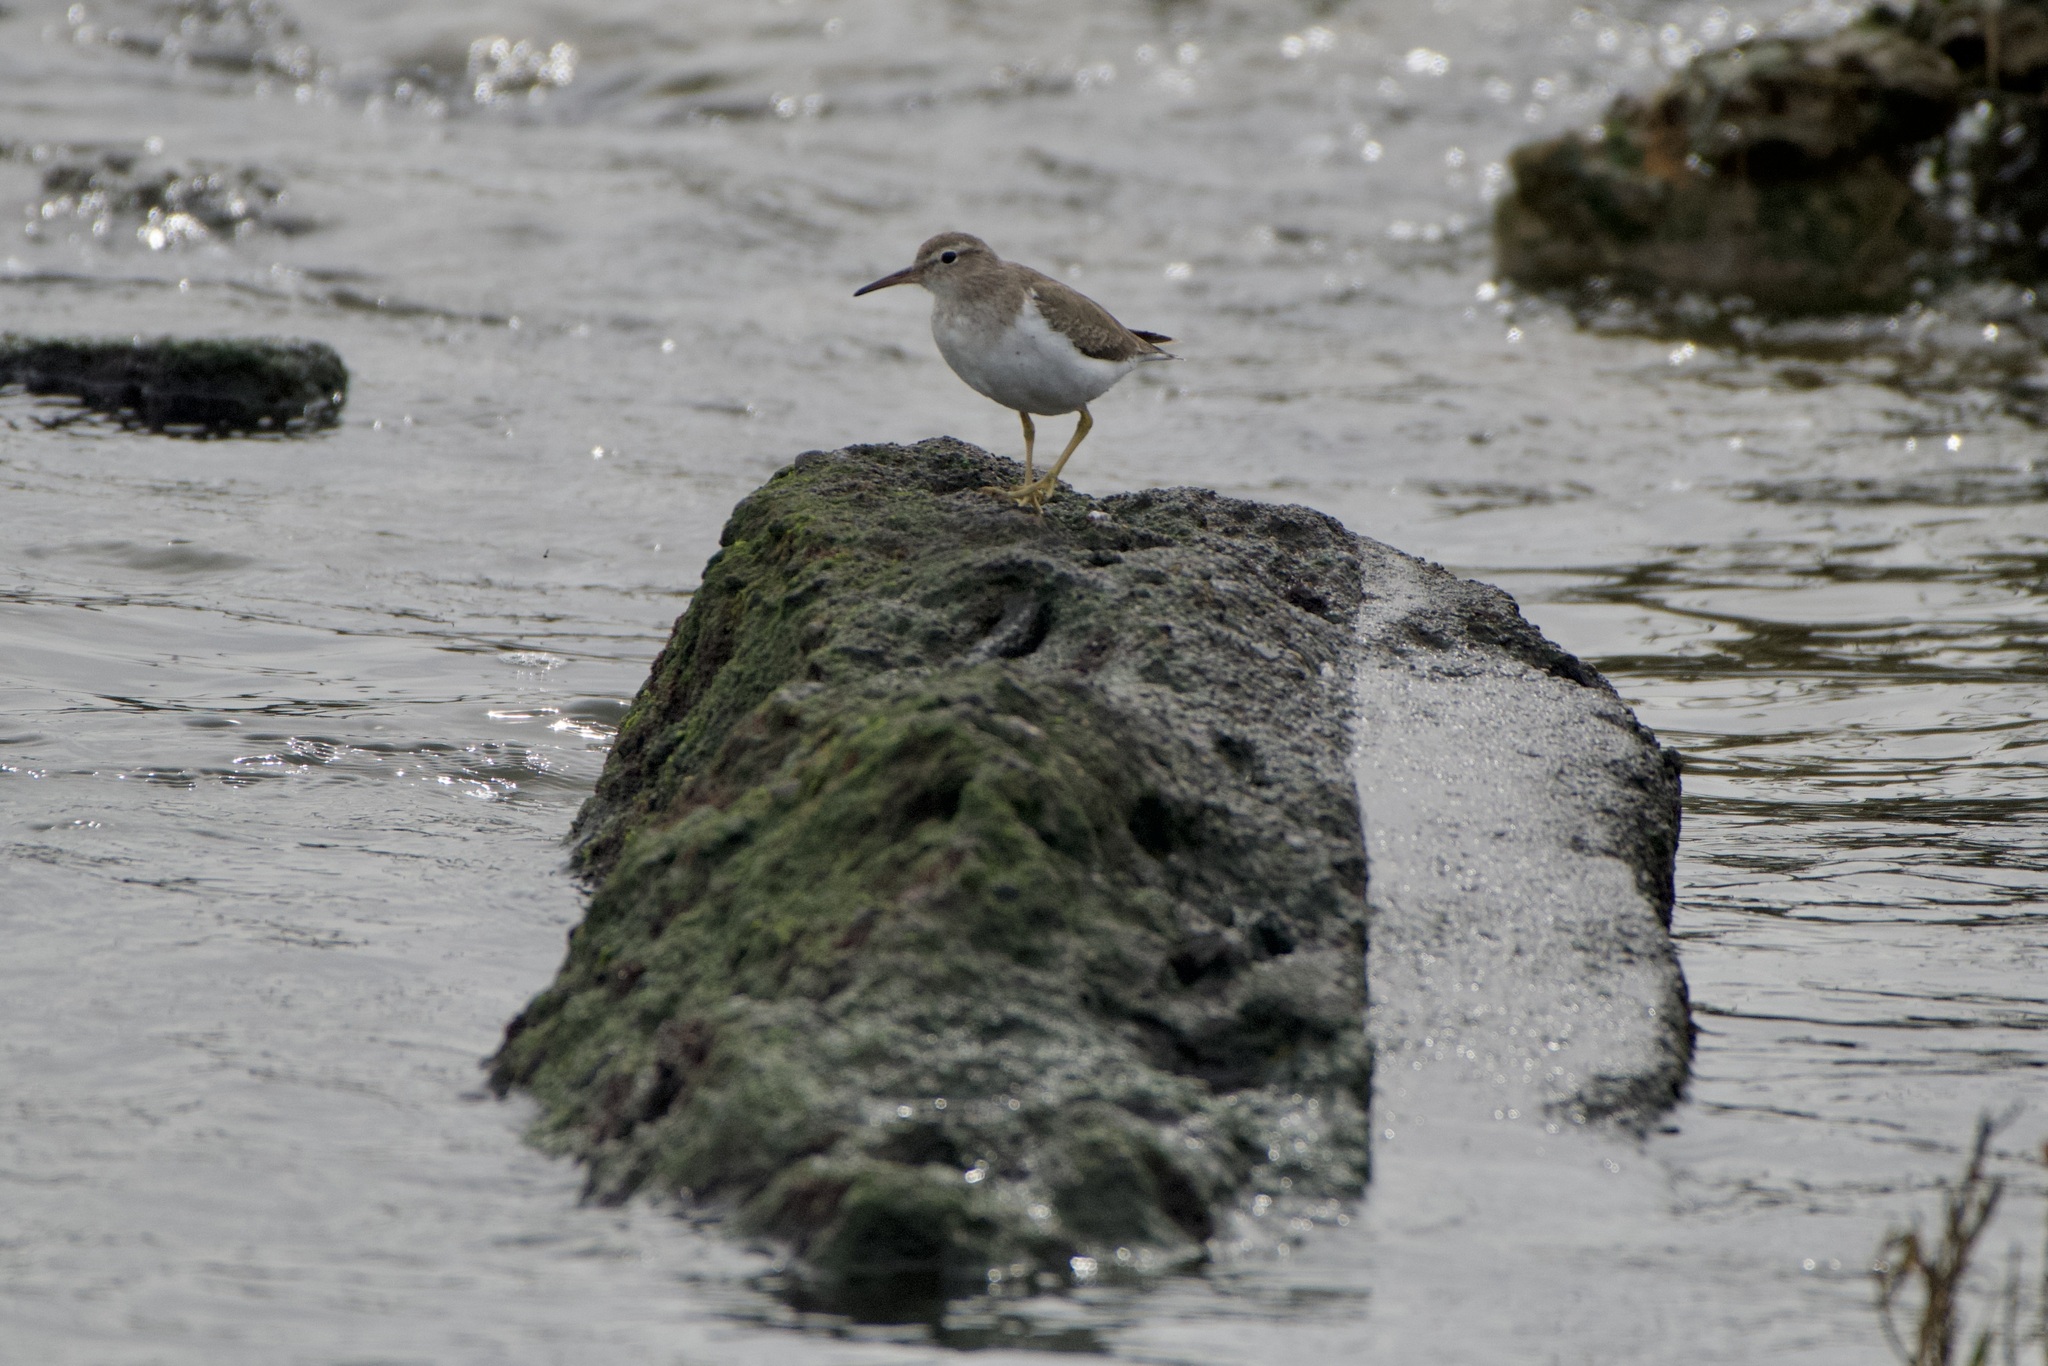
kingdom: Animalia
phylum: Chordata
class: Aves
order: Charadriiformes
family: Scolopacidae
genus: Actitis
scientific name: Actitis macularius
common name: Spotted sandpiper
